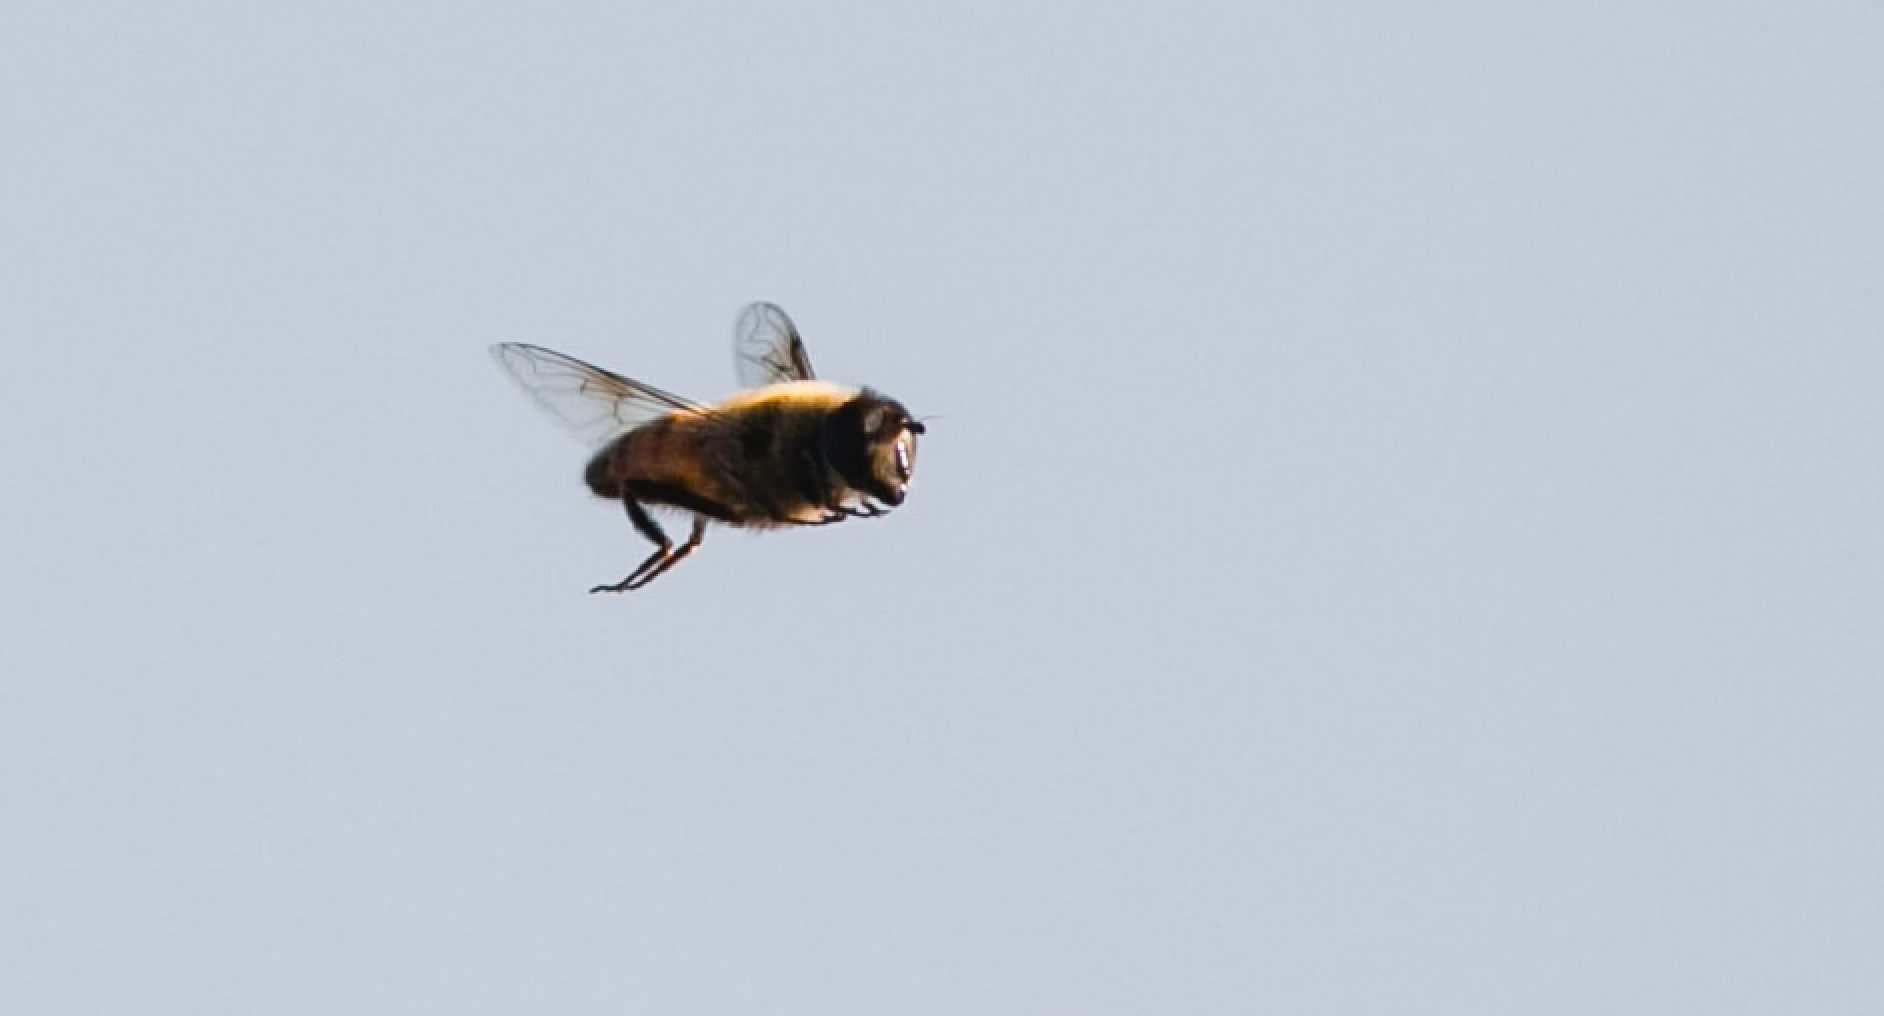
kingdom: Animalia
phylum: Arthropoda
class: Insecta
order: Diptera
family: Syrphidae
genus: Eristalis
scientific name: Eristalis tenax
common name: Drone fly
